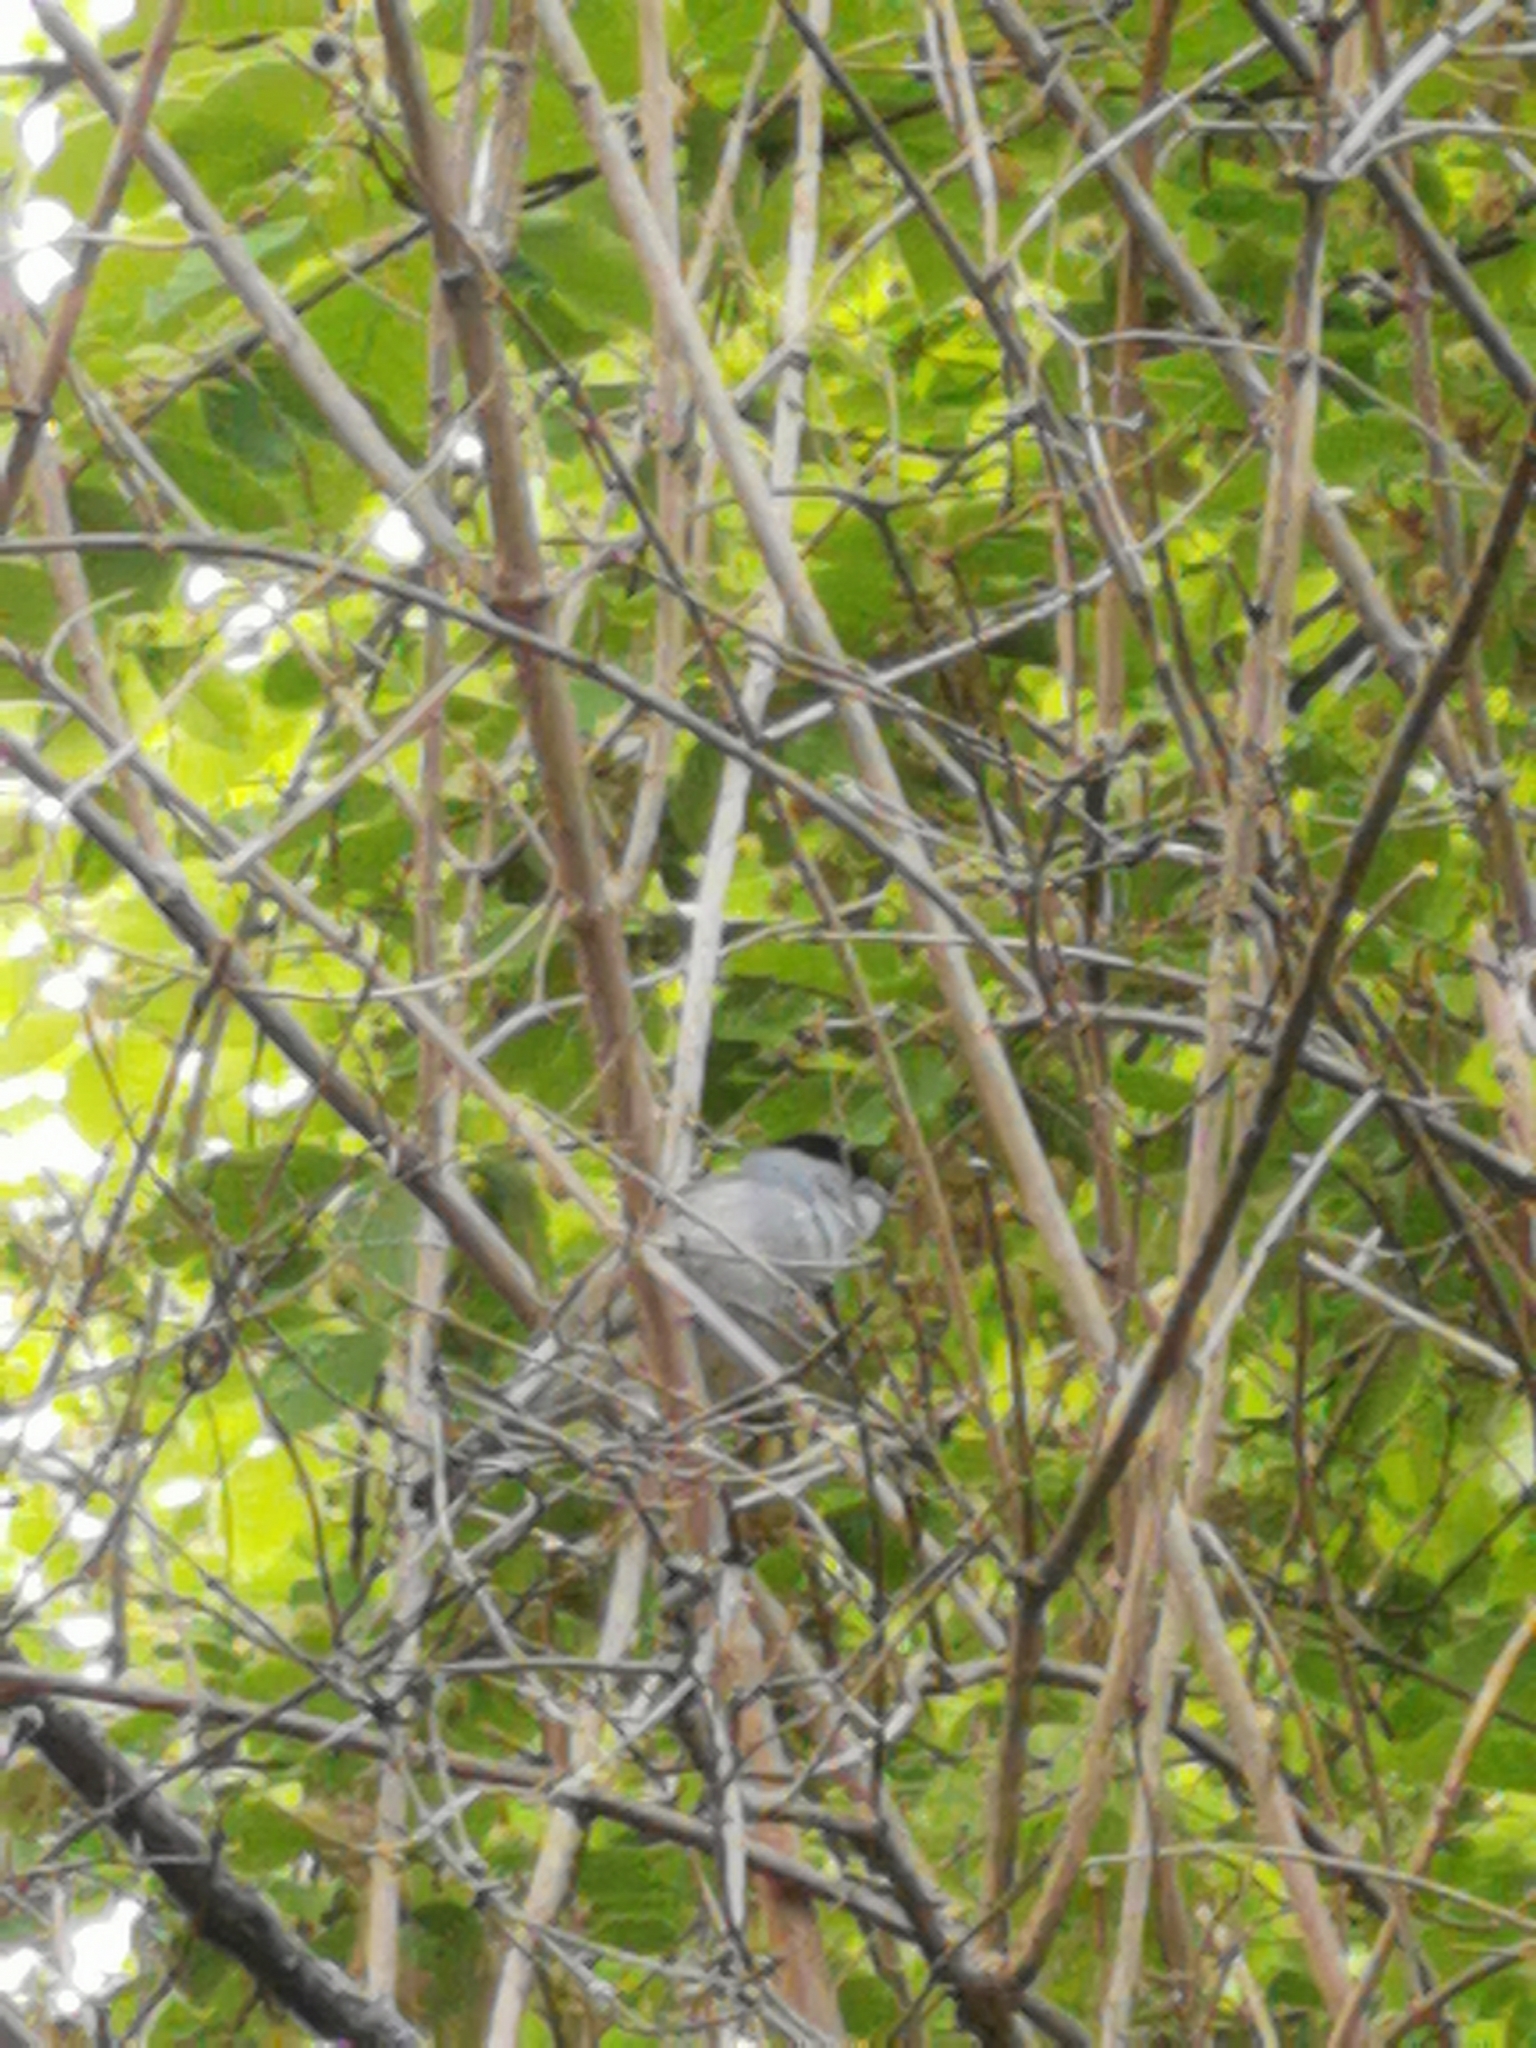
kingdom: Animalia
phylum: Chordata
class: Aves
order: Passeriformes
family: Sylviidae
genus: Sylvia
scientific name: Sylvia atricapilla
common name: Eurasian blackcap
